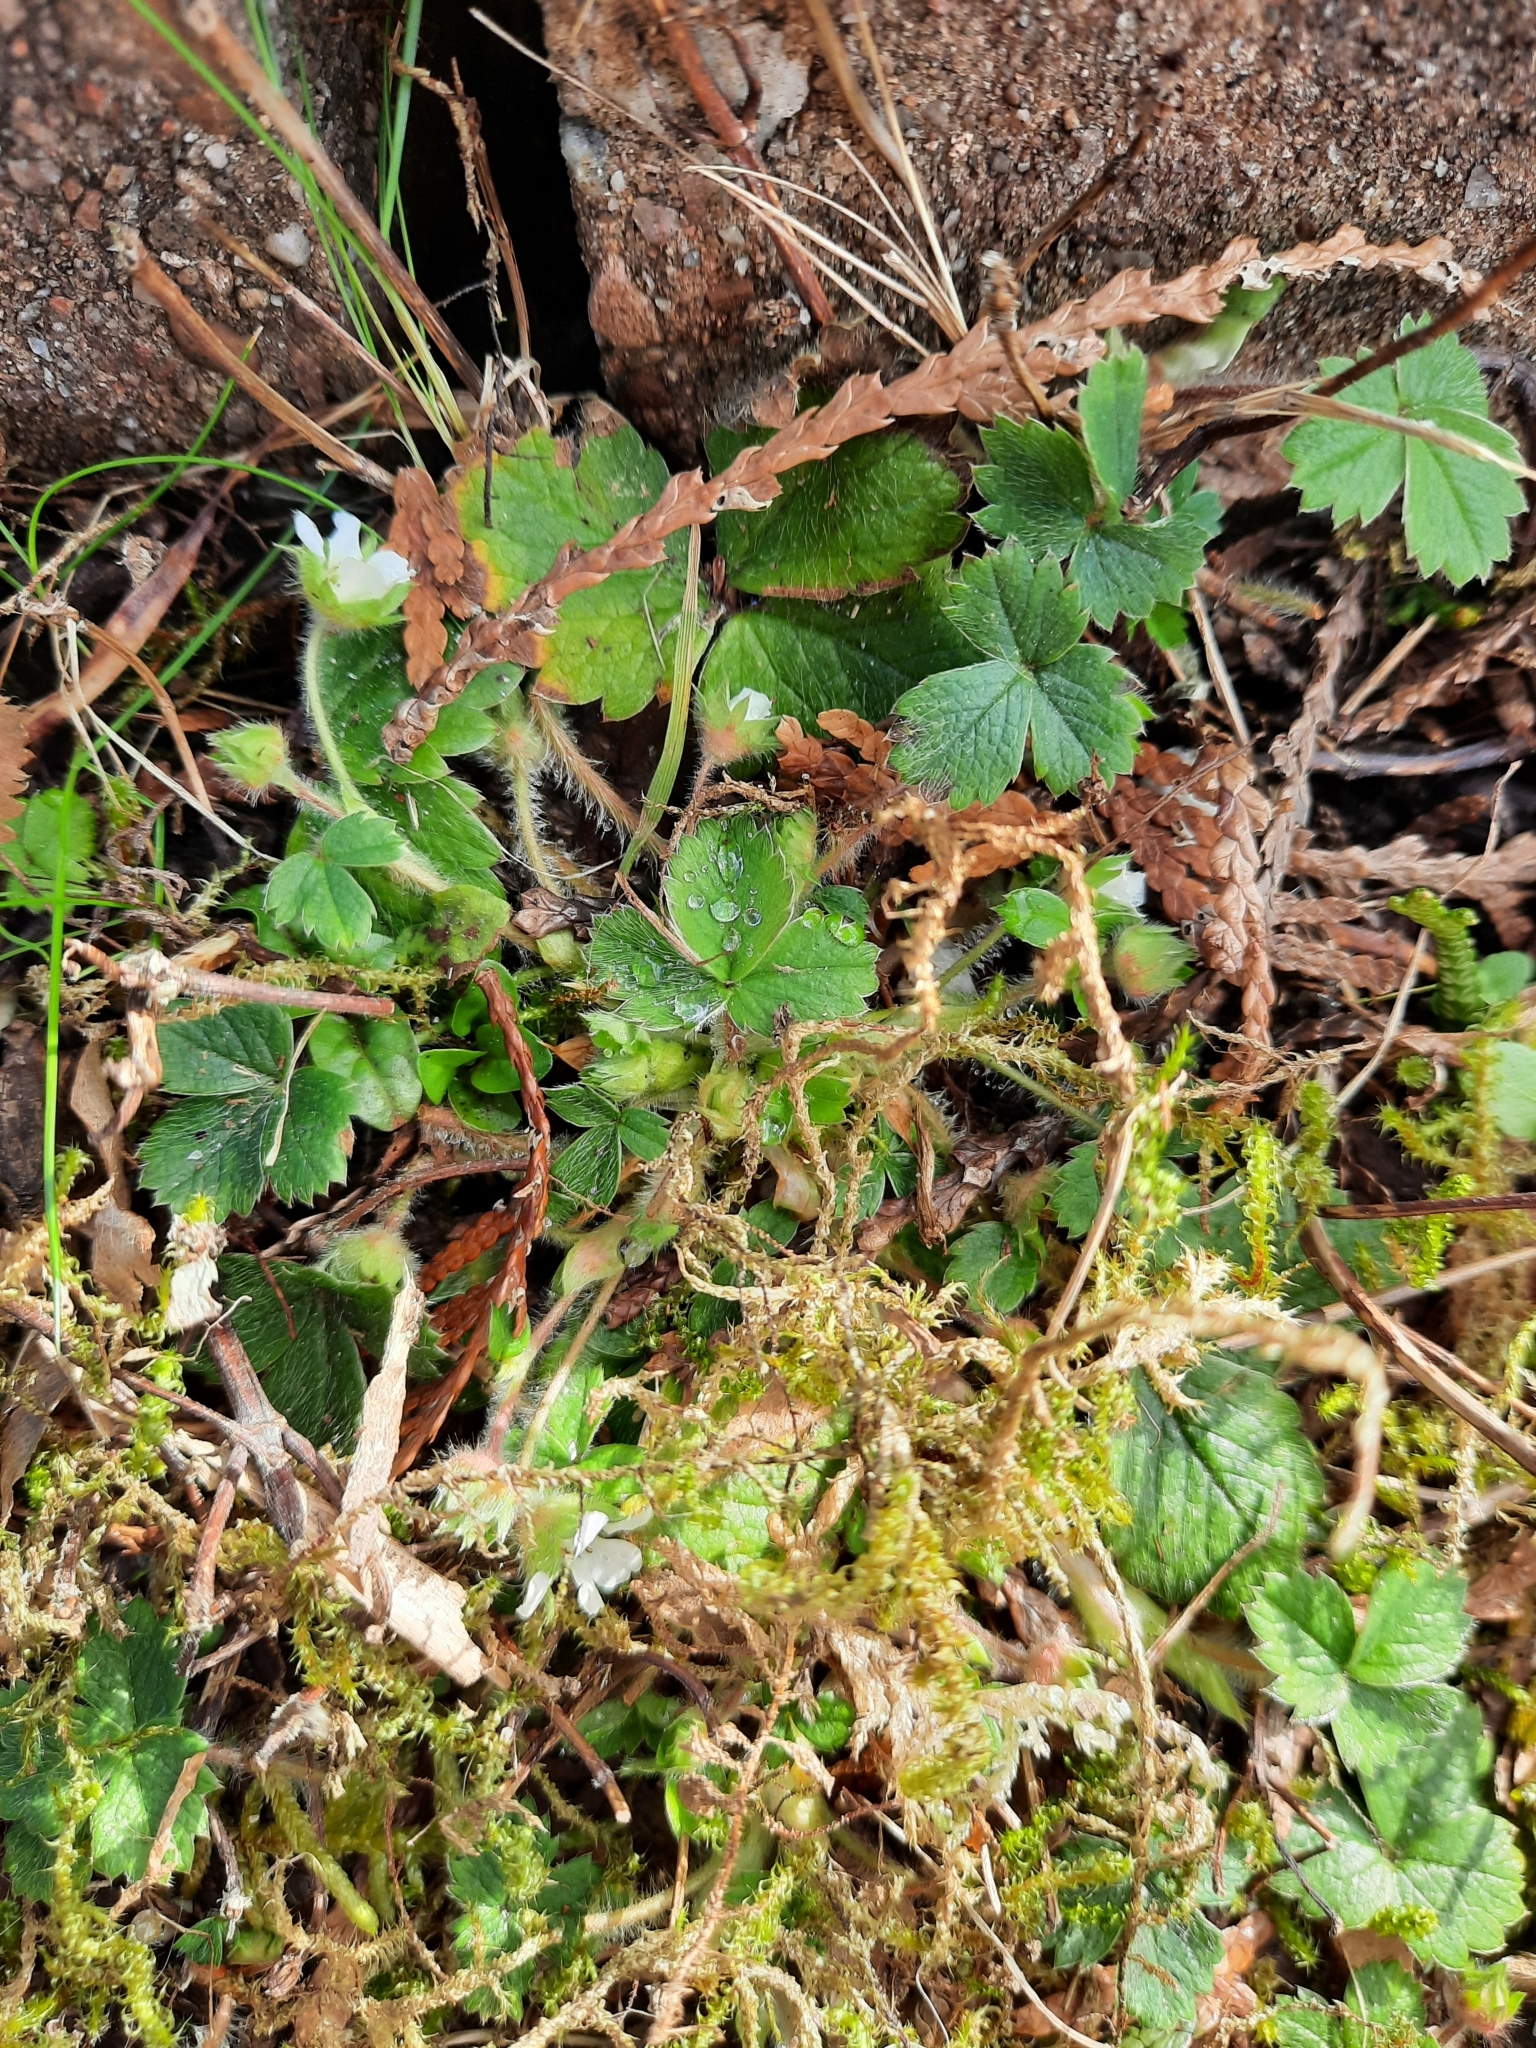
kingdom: Plantae
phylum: Tracheophyta
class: Magnoliopsida
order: Rosales
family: Rosaceae
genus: Potentilla
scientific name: Potentilla sterilis
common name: Barren strawberry
